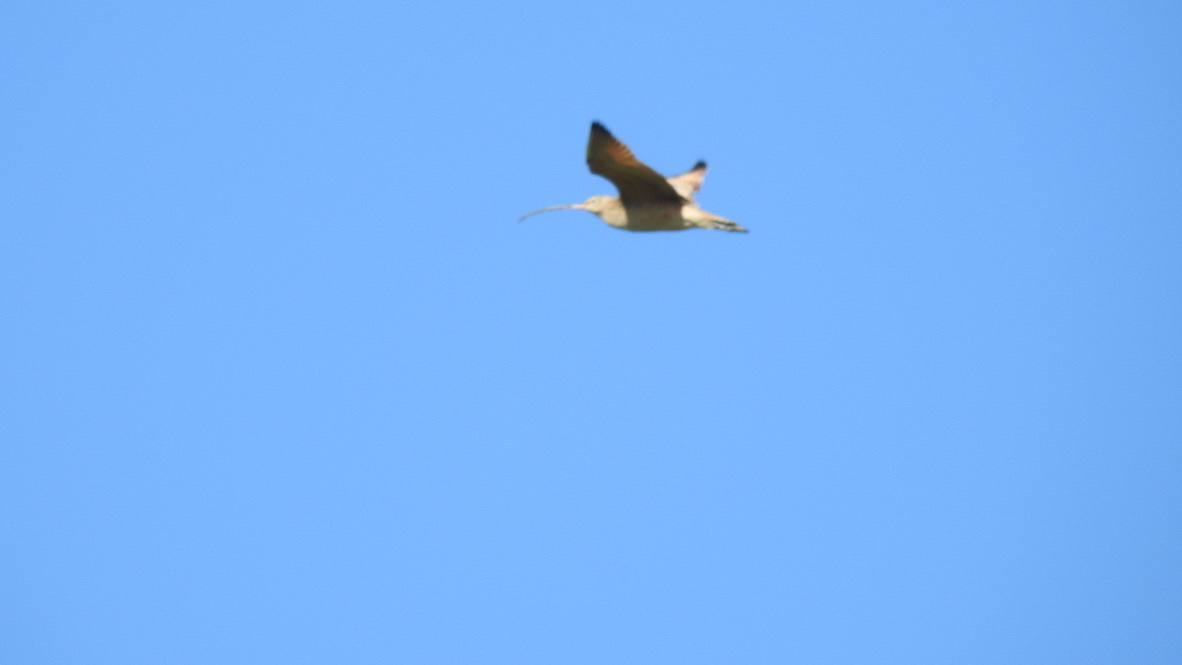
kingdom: Animalia
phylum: Chordata
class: Aves
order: Charadriiformes
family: Scolopacidae
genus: Numenius
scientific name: Numenius americanus
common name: Long-billed curlew
